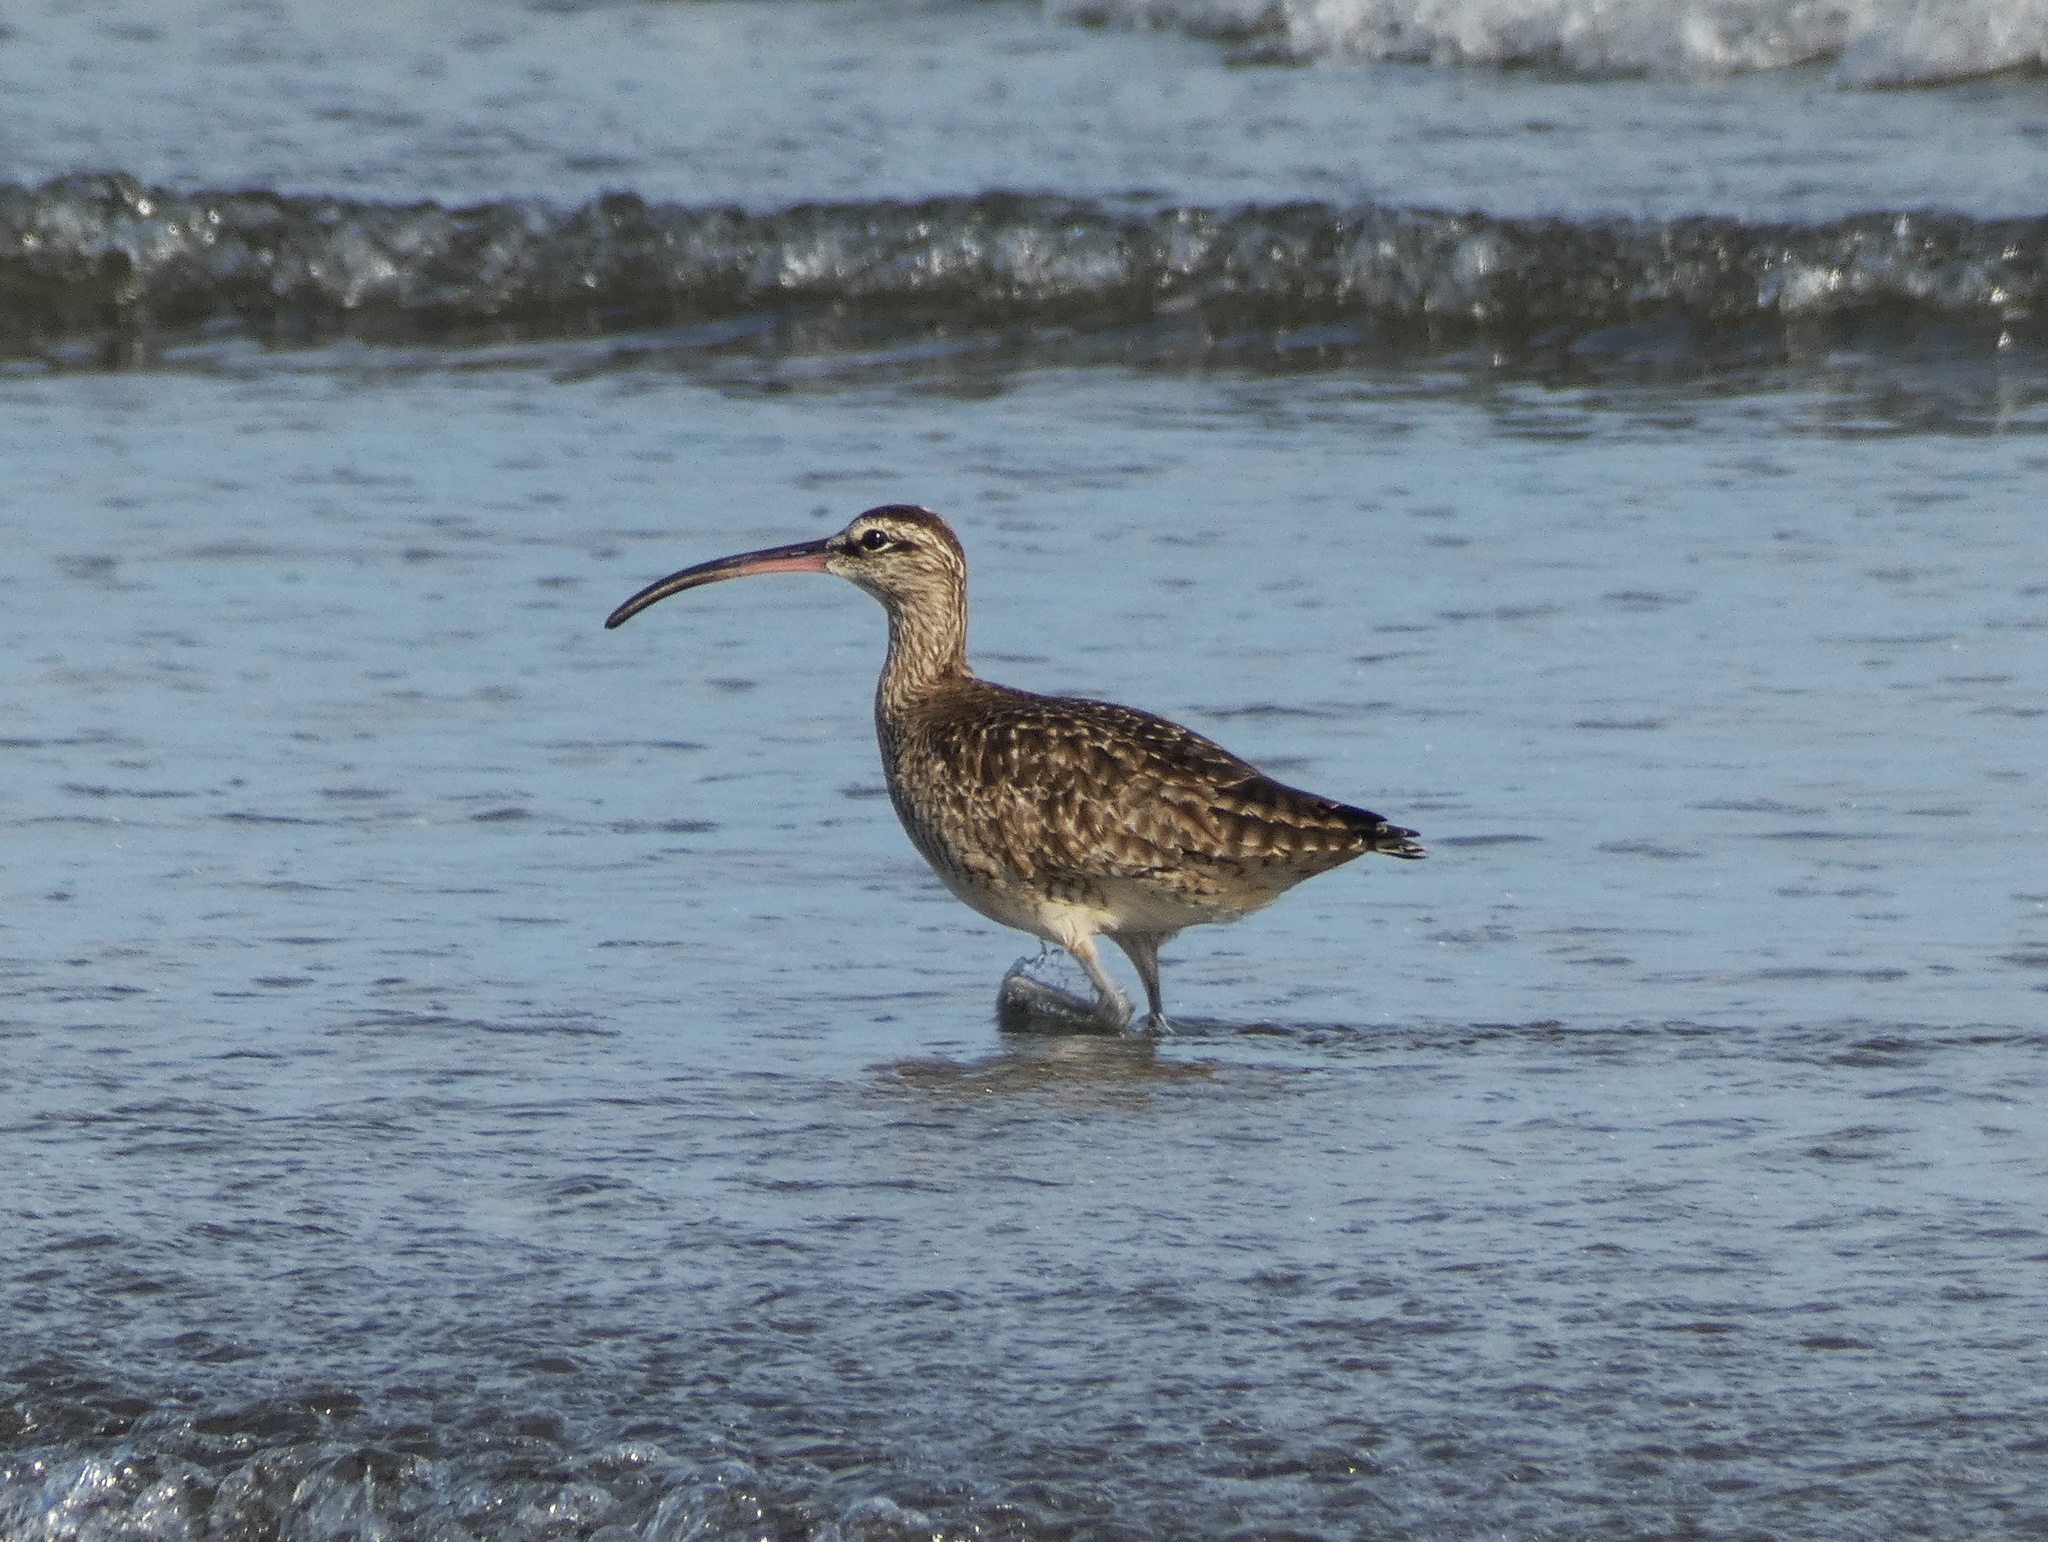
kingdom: Animalia
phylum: Chordata
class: Aves
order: Charadriiformes
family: Scolopacidae
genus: Numenius
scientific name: Numenius phaeopus
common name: Whimbrel
